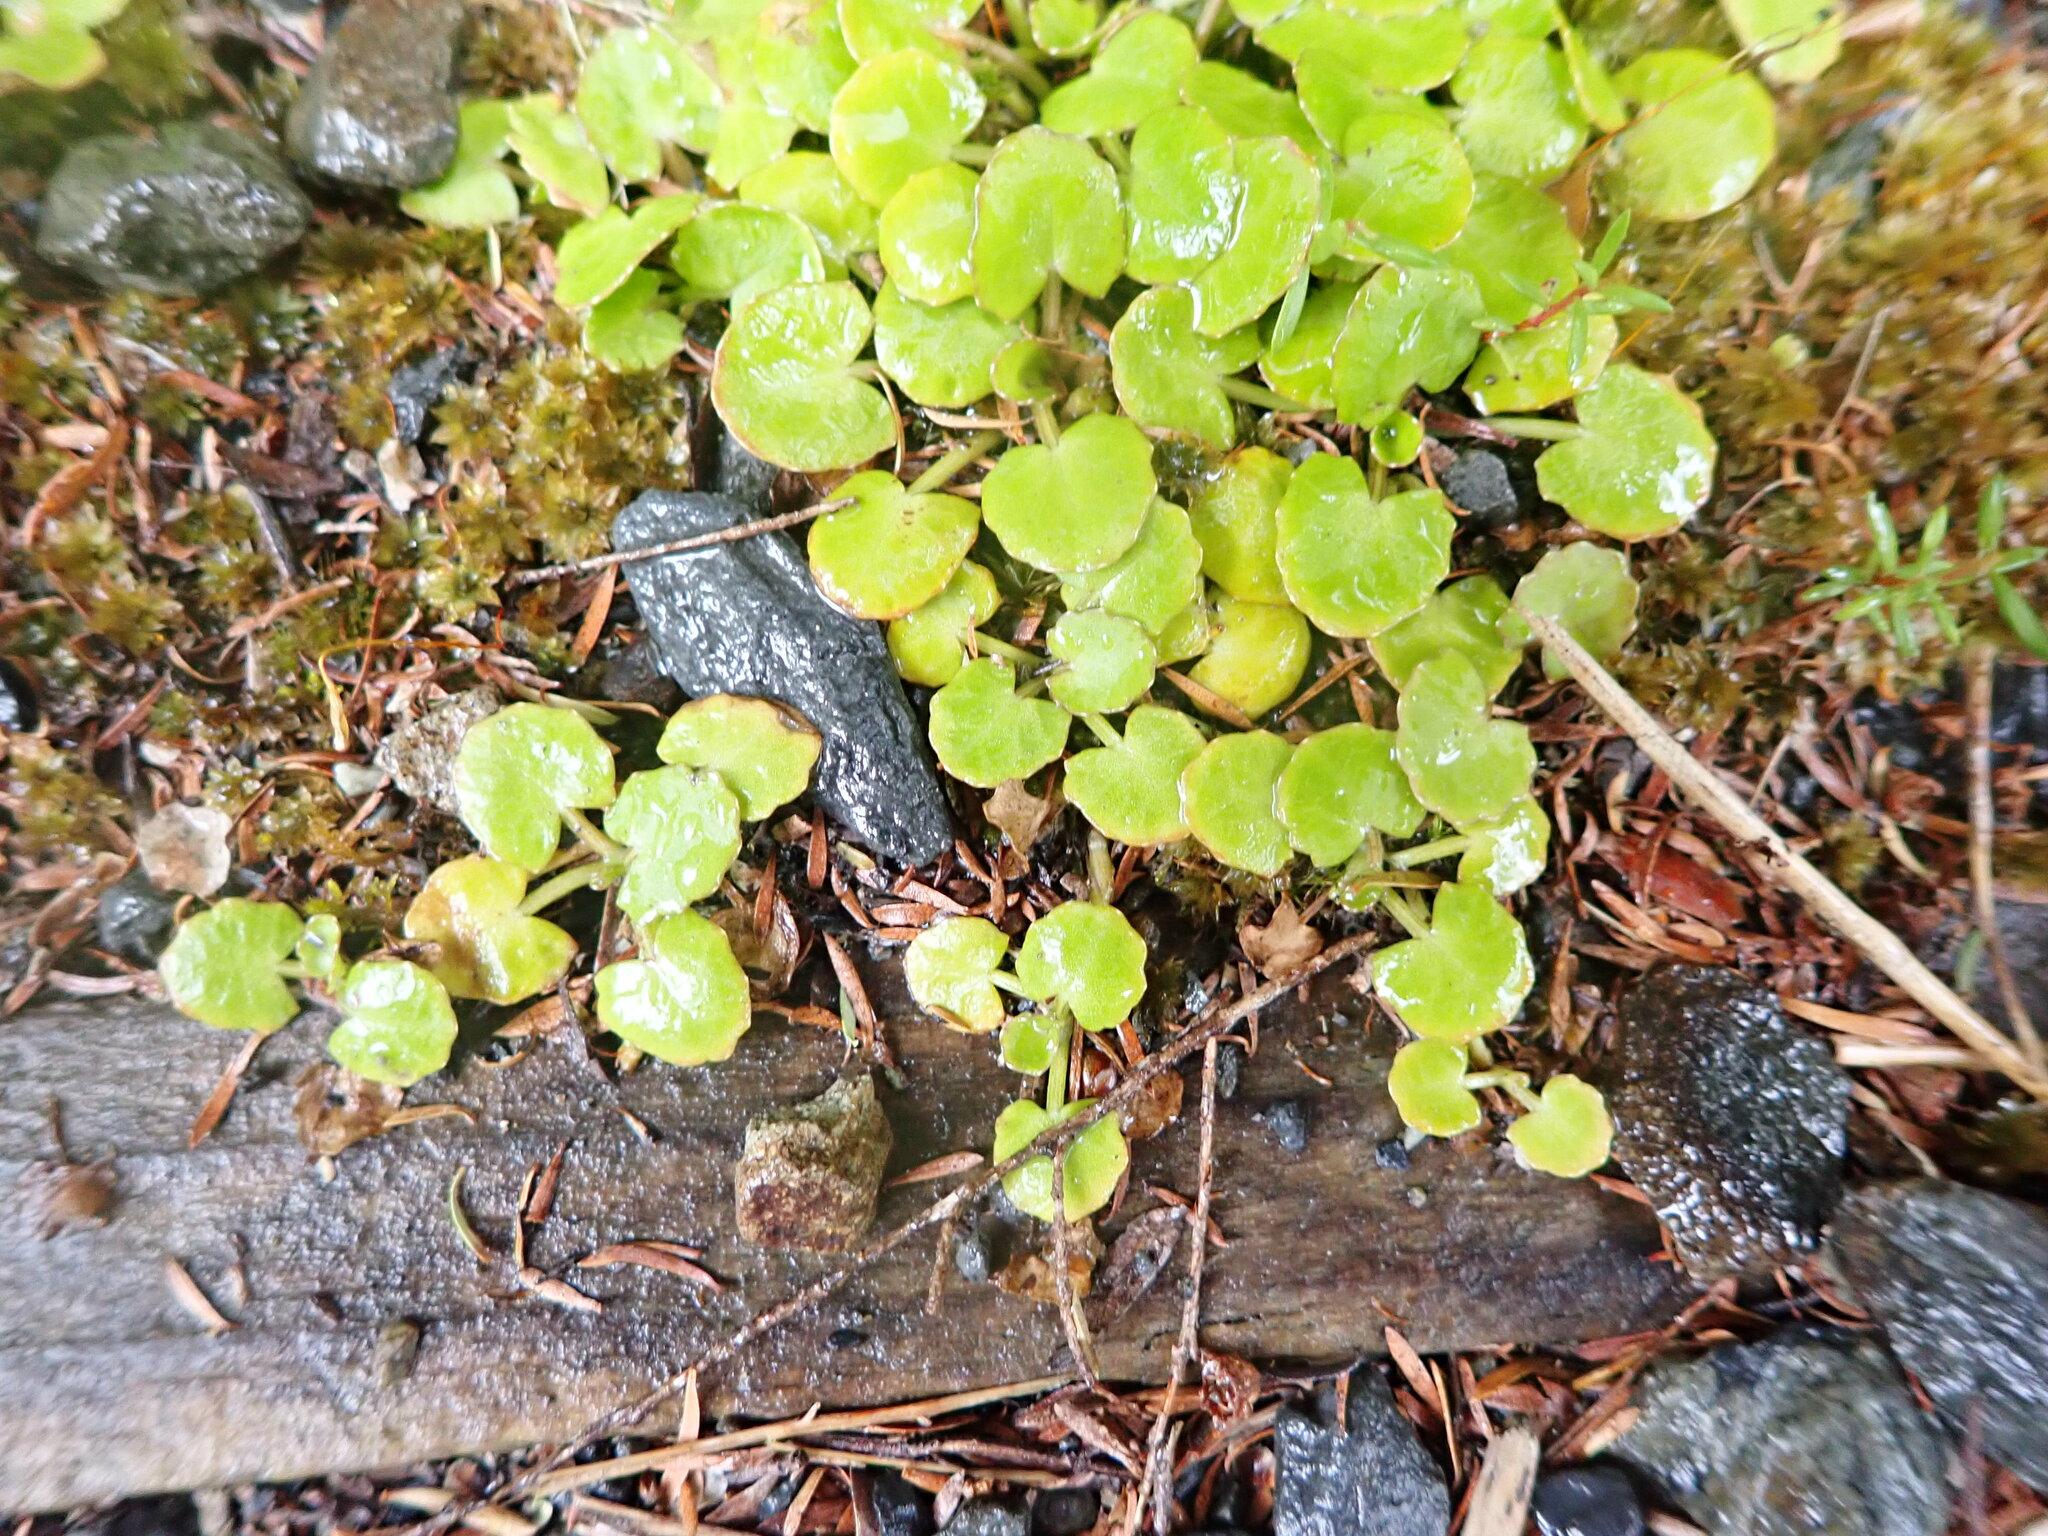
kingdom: Plantae
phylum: Tracheophyta
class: Magnoliopsida
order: Apiales
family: Apiaceae
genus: Centella
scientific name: Centella uniflora
